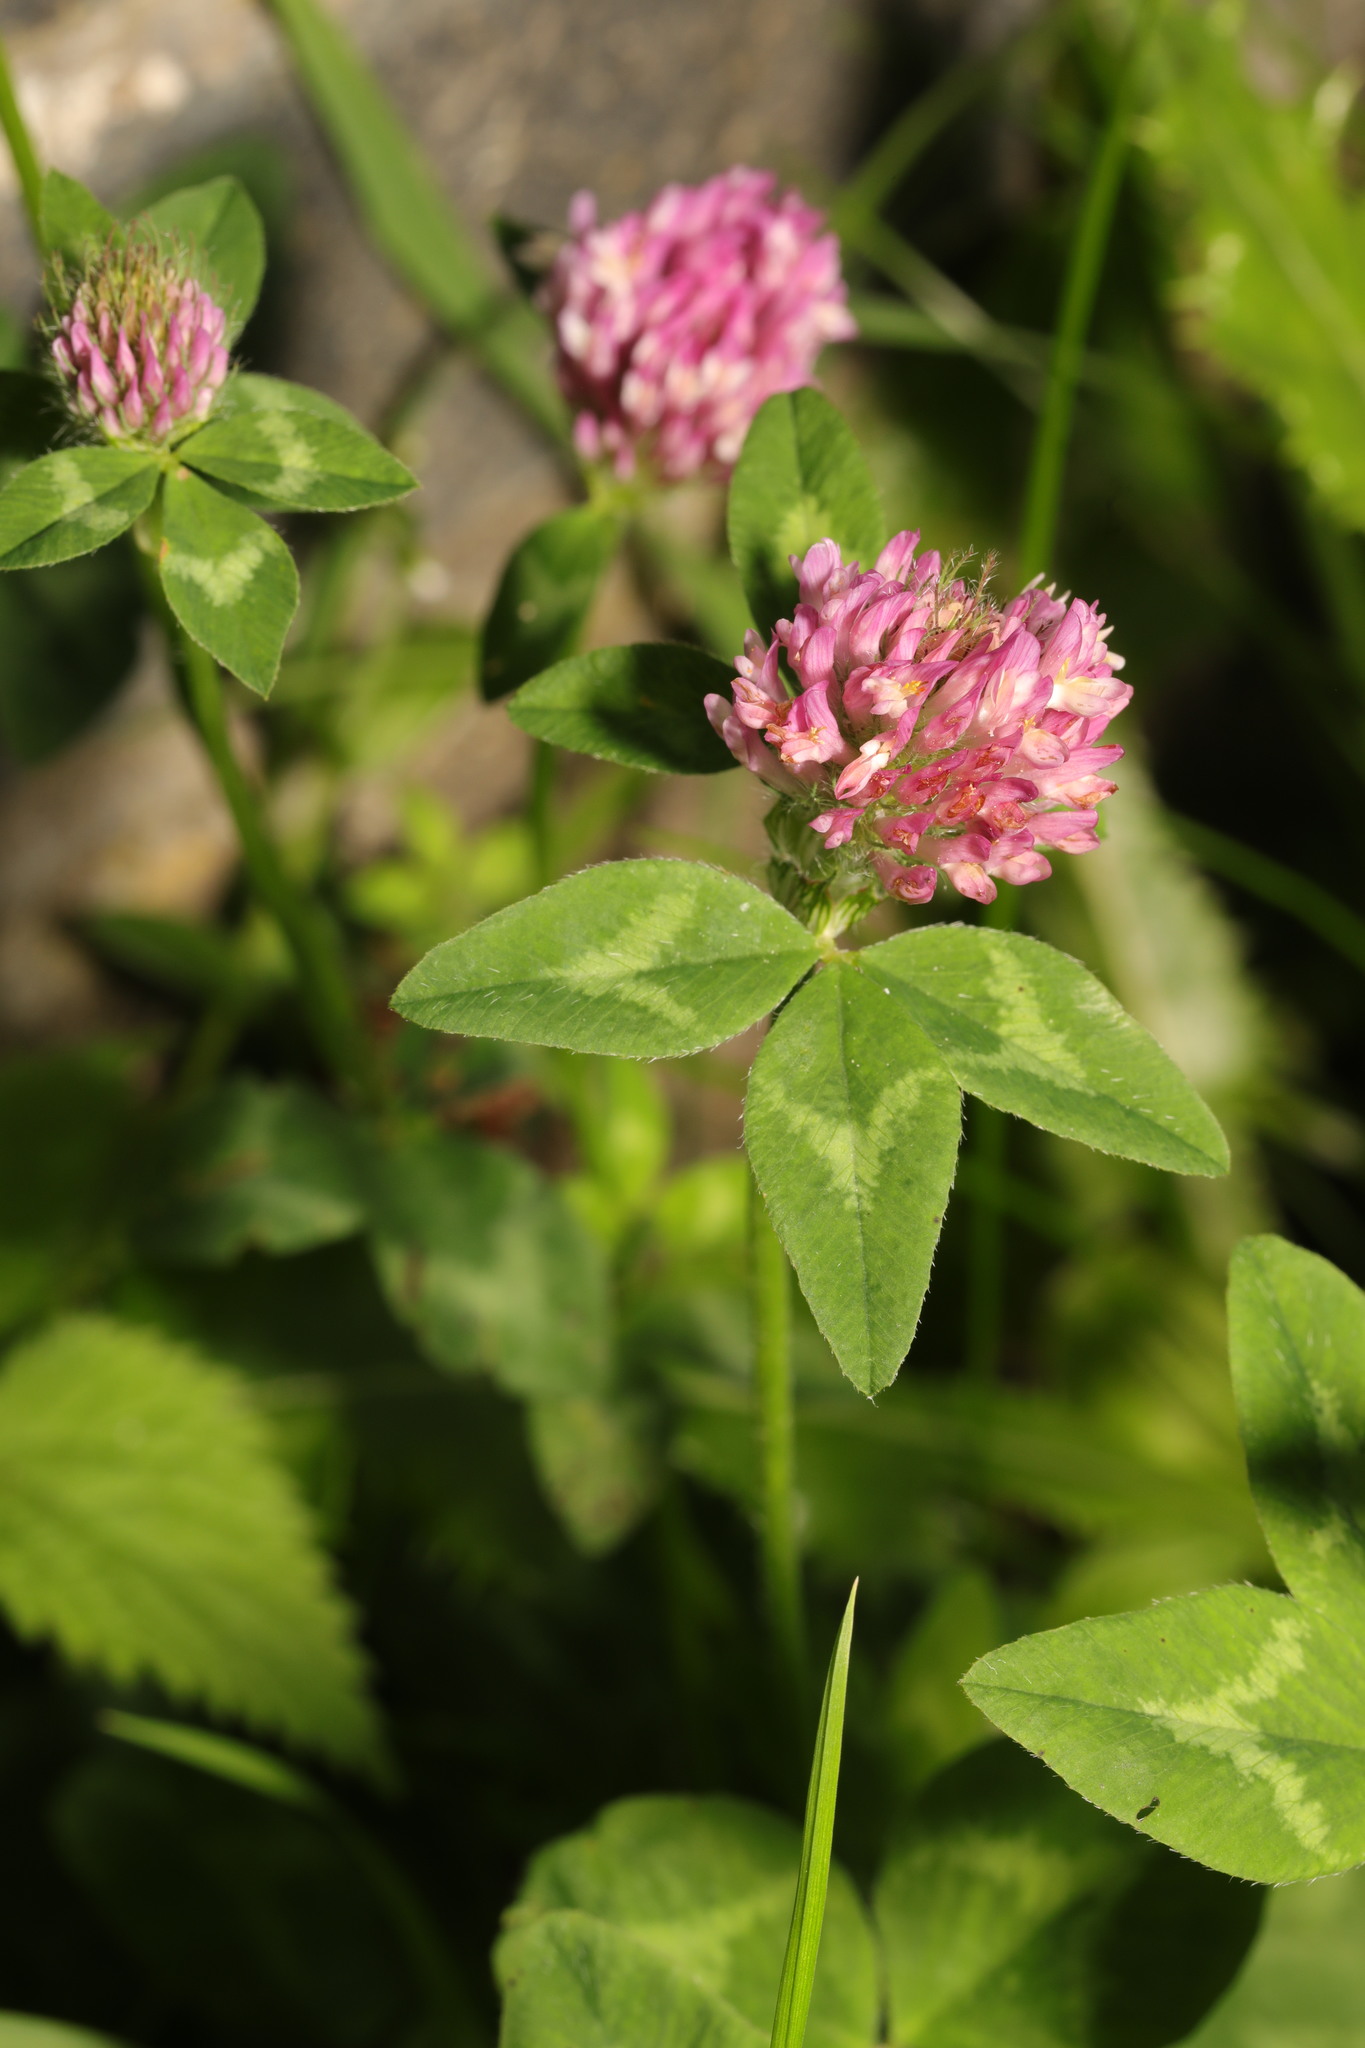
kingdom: Plantae
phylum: Tracheophyta
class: Magnoliopsida
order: Fabales
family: Fabaceae
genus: Trifolium
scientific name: Trifolium pratense
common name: Red clover
